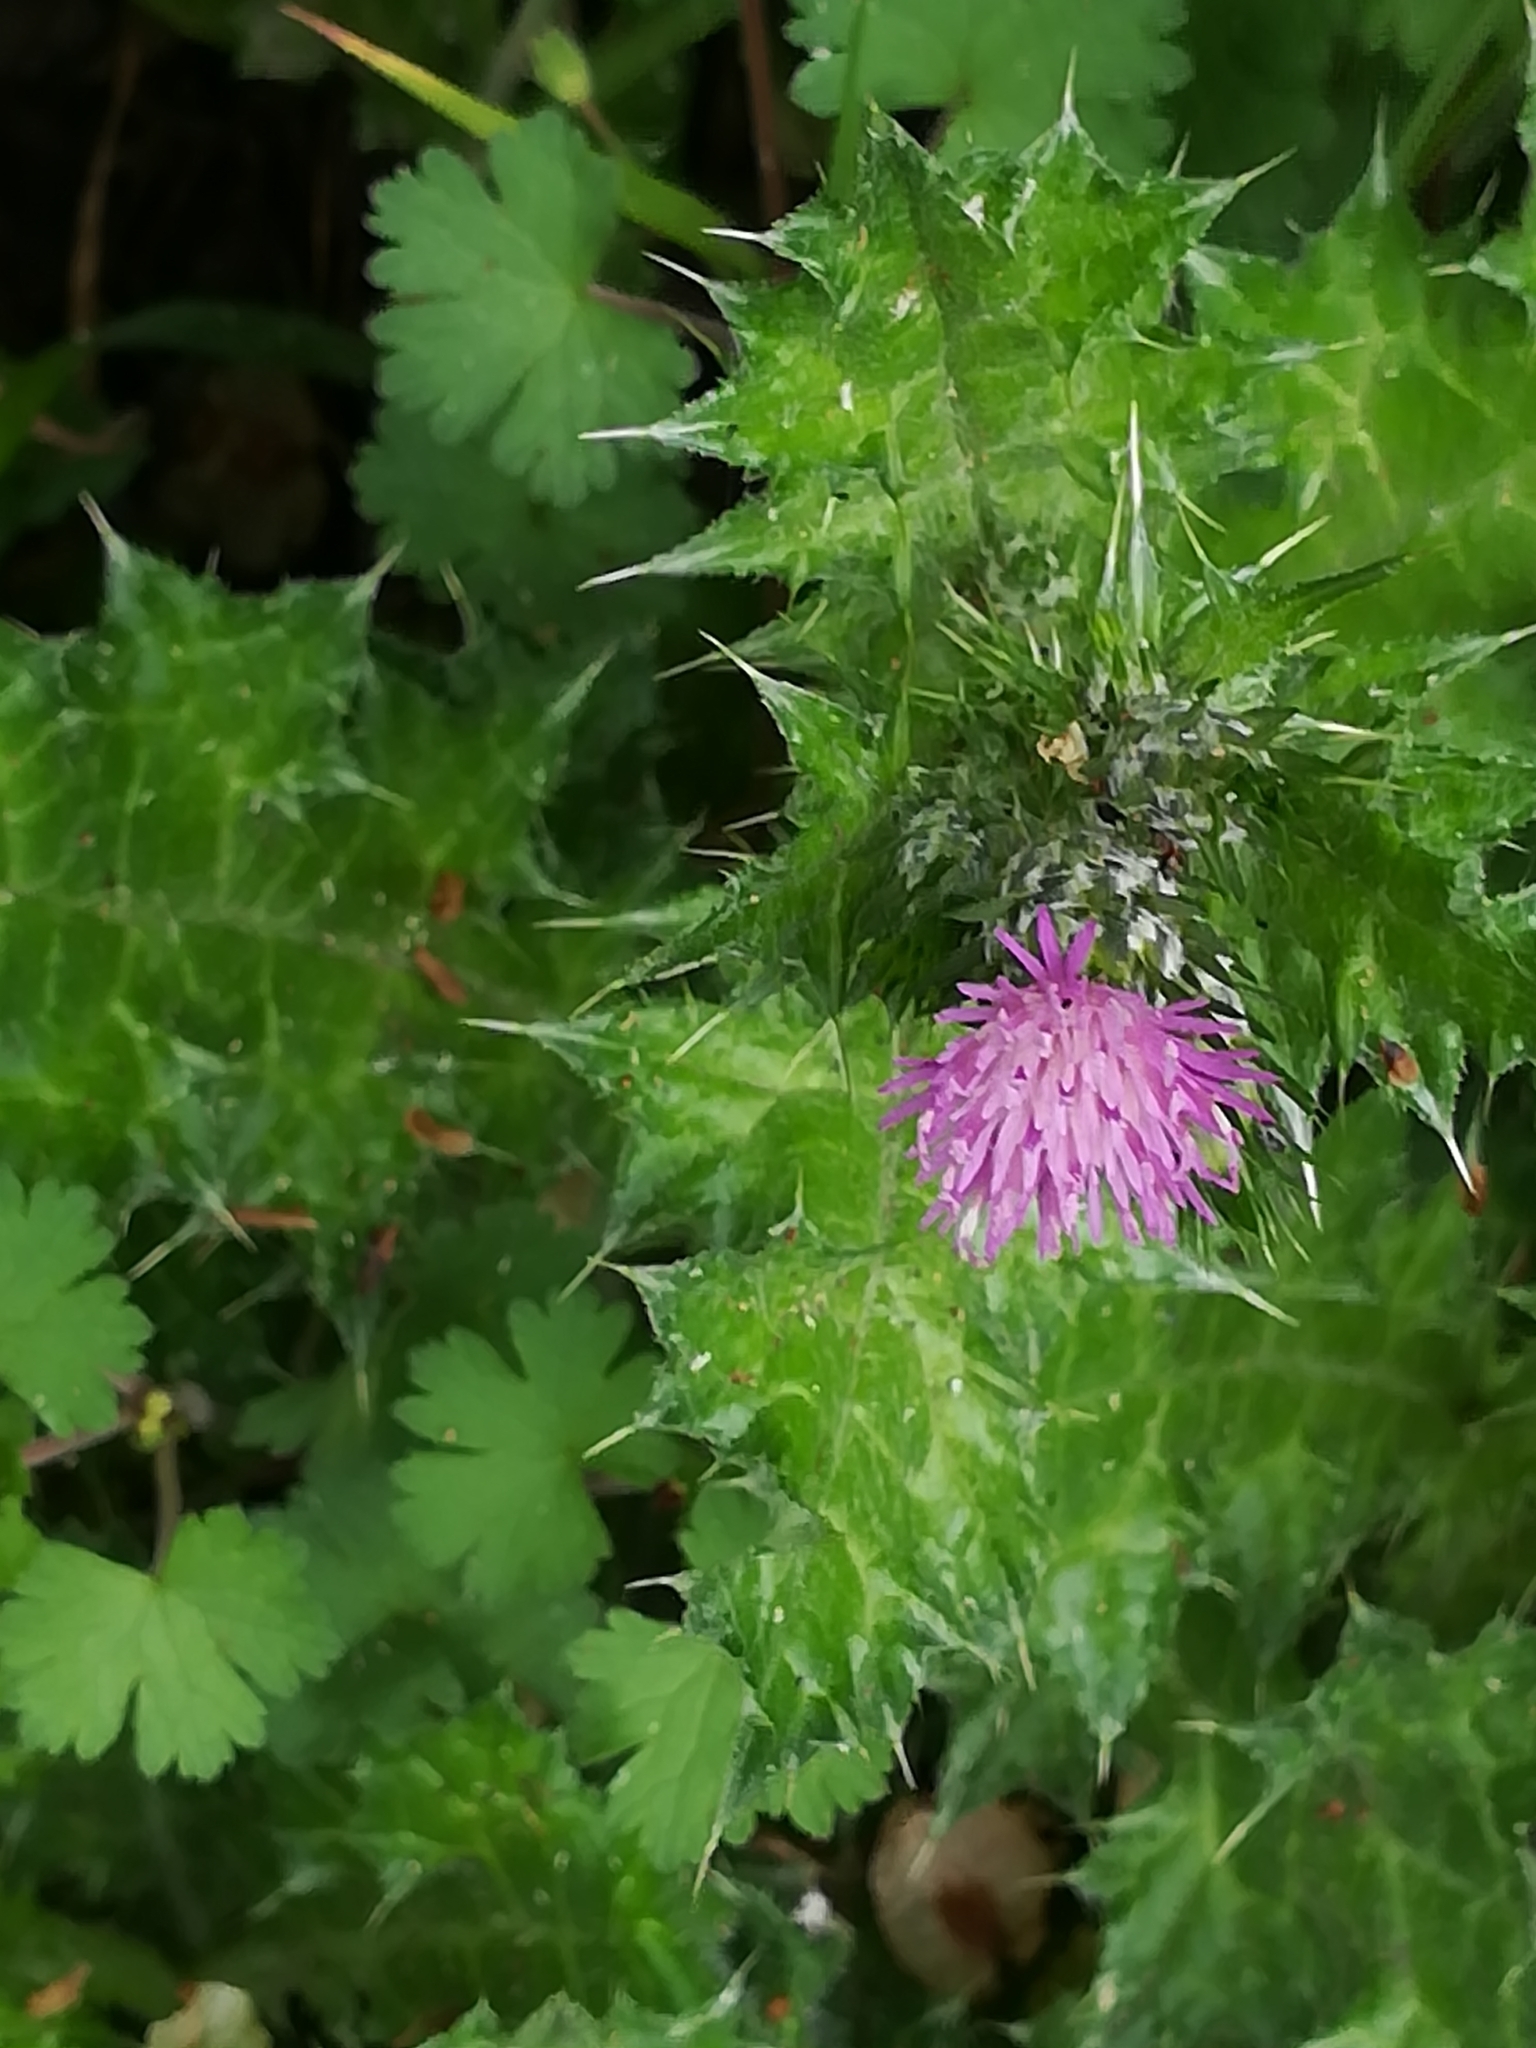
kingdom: Plantae
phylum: Tracheophyta
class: Magnoliopsida
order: Asterales
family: Asteraceae
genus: Carduus
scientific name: Carduus pycnocephalus
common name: Plymouth thistle
